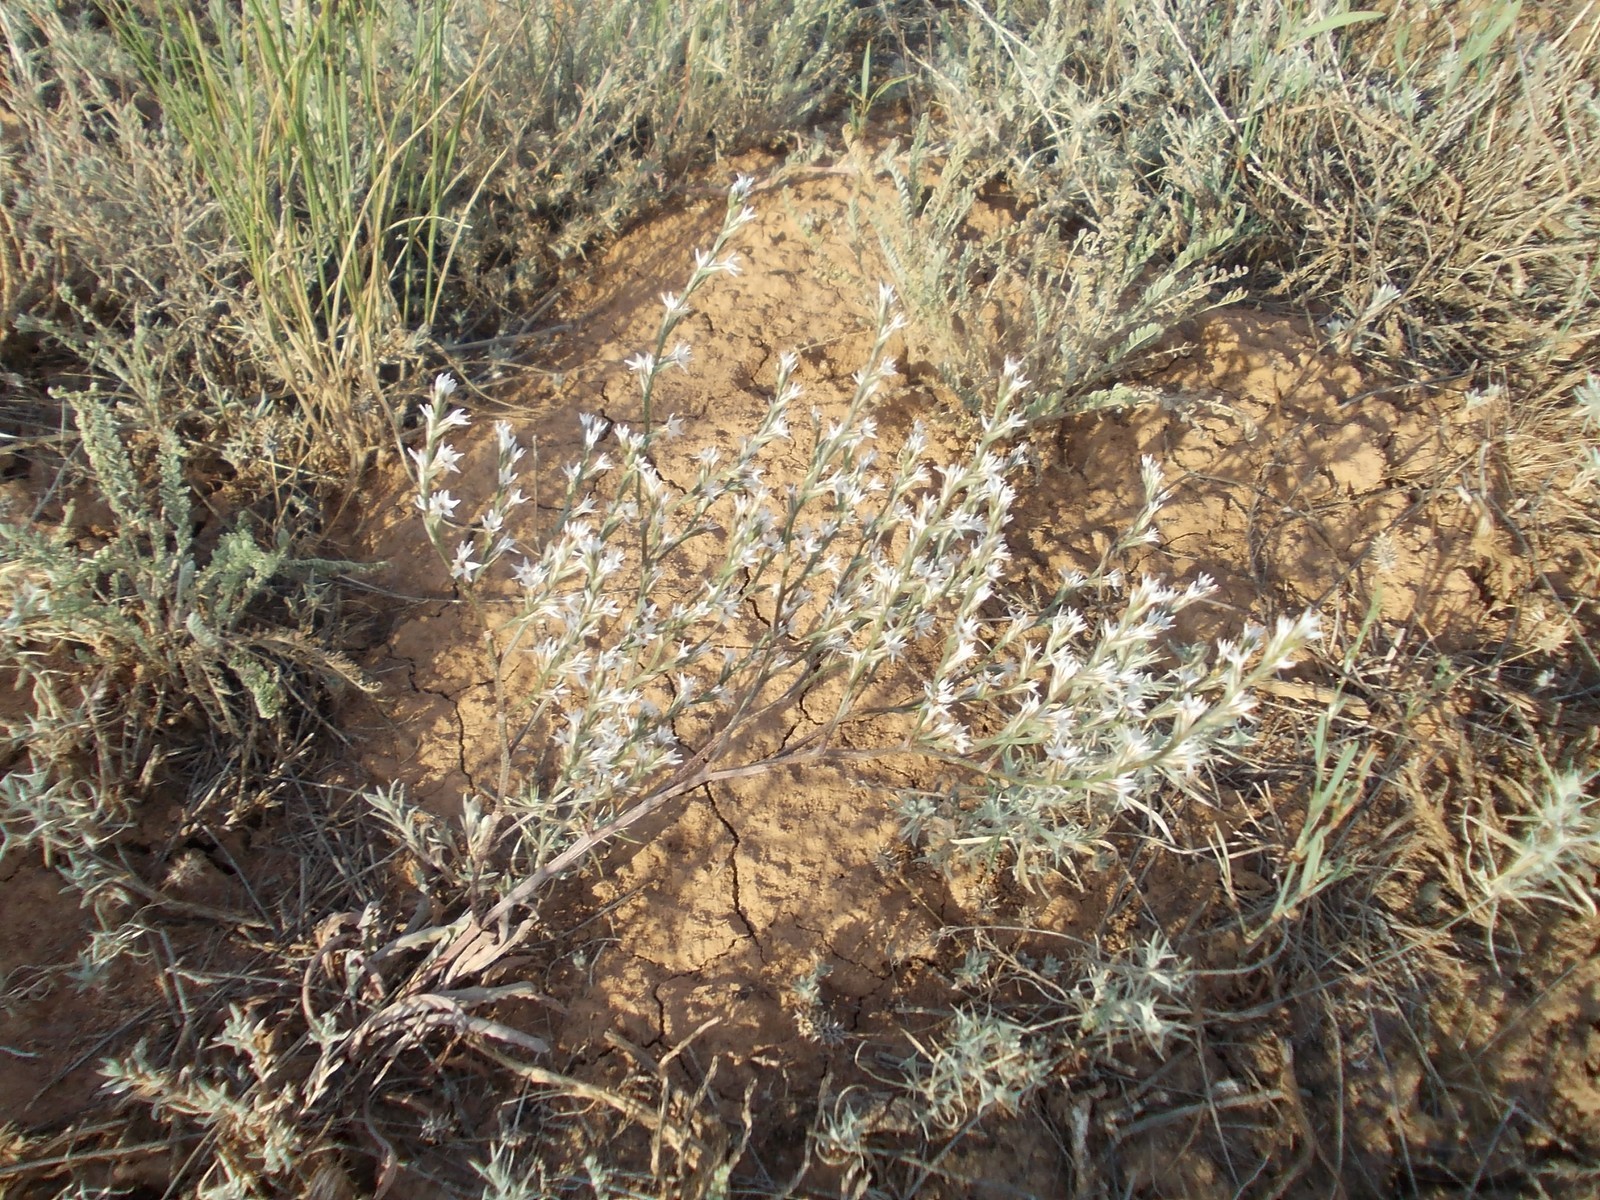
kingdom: Plantae
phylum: Tracheophyta
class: Magnoliopsida
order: Caryophyllales
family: Plumbaginaceae
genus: Goniolimon
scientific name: Goniolimon rubellum
